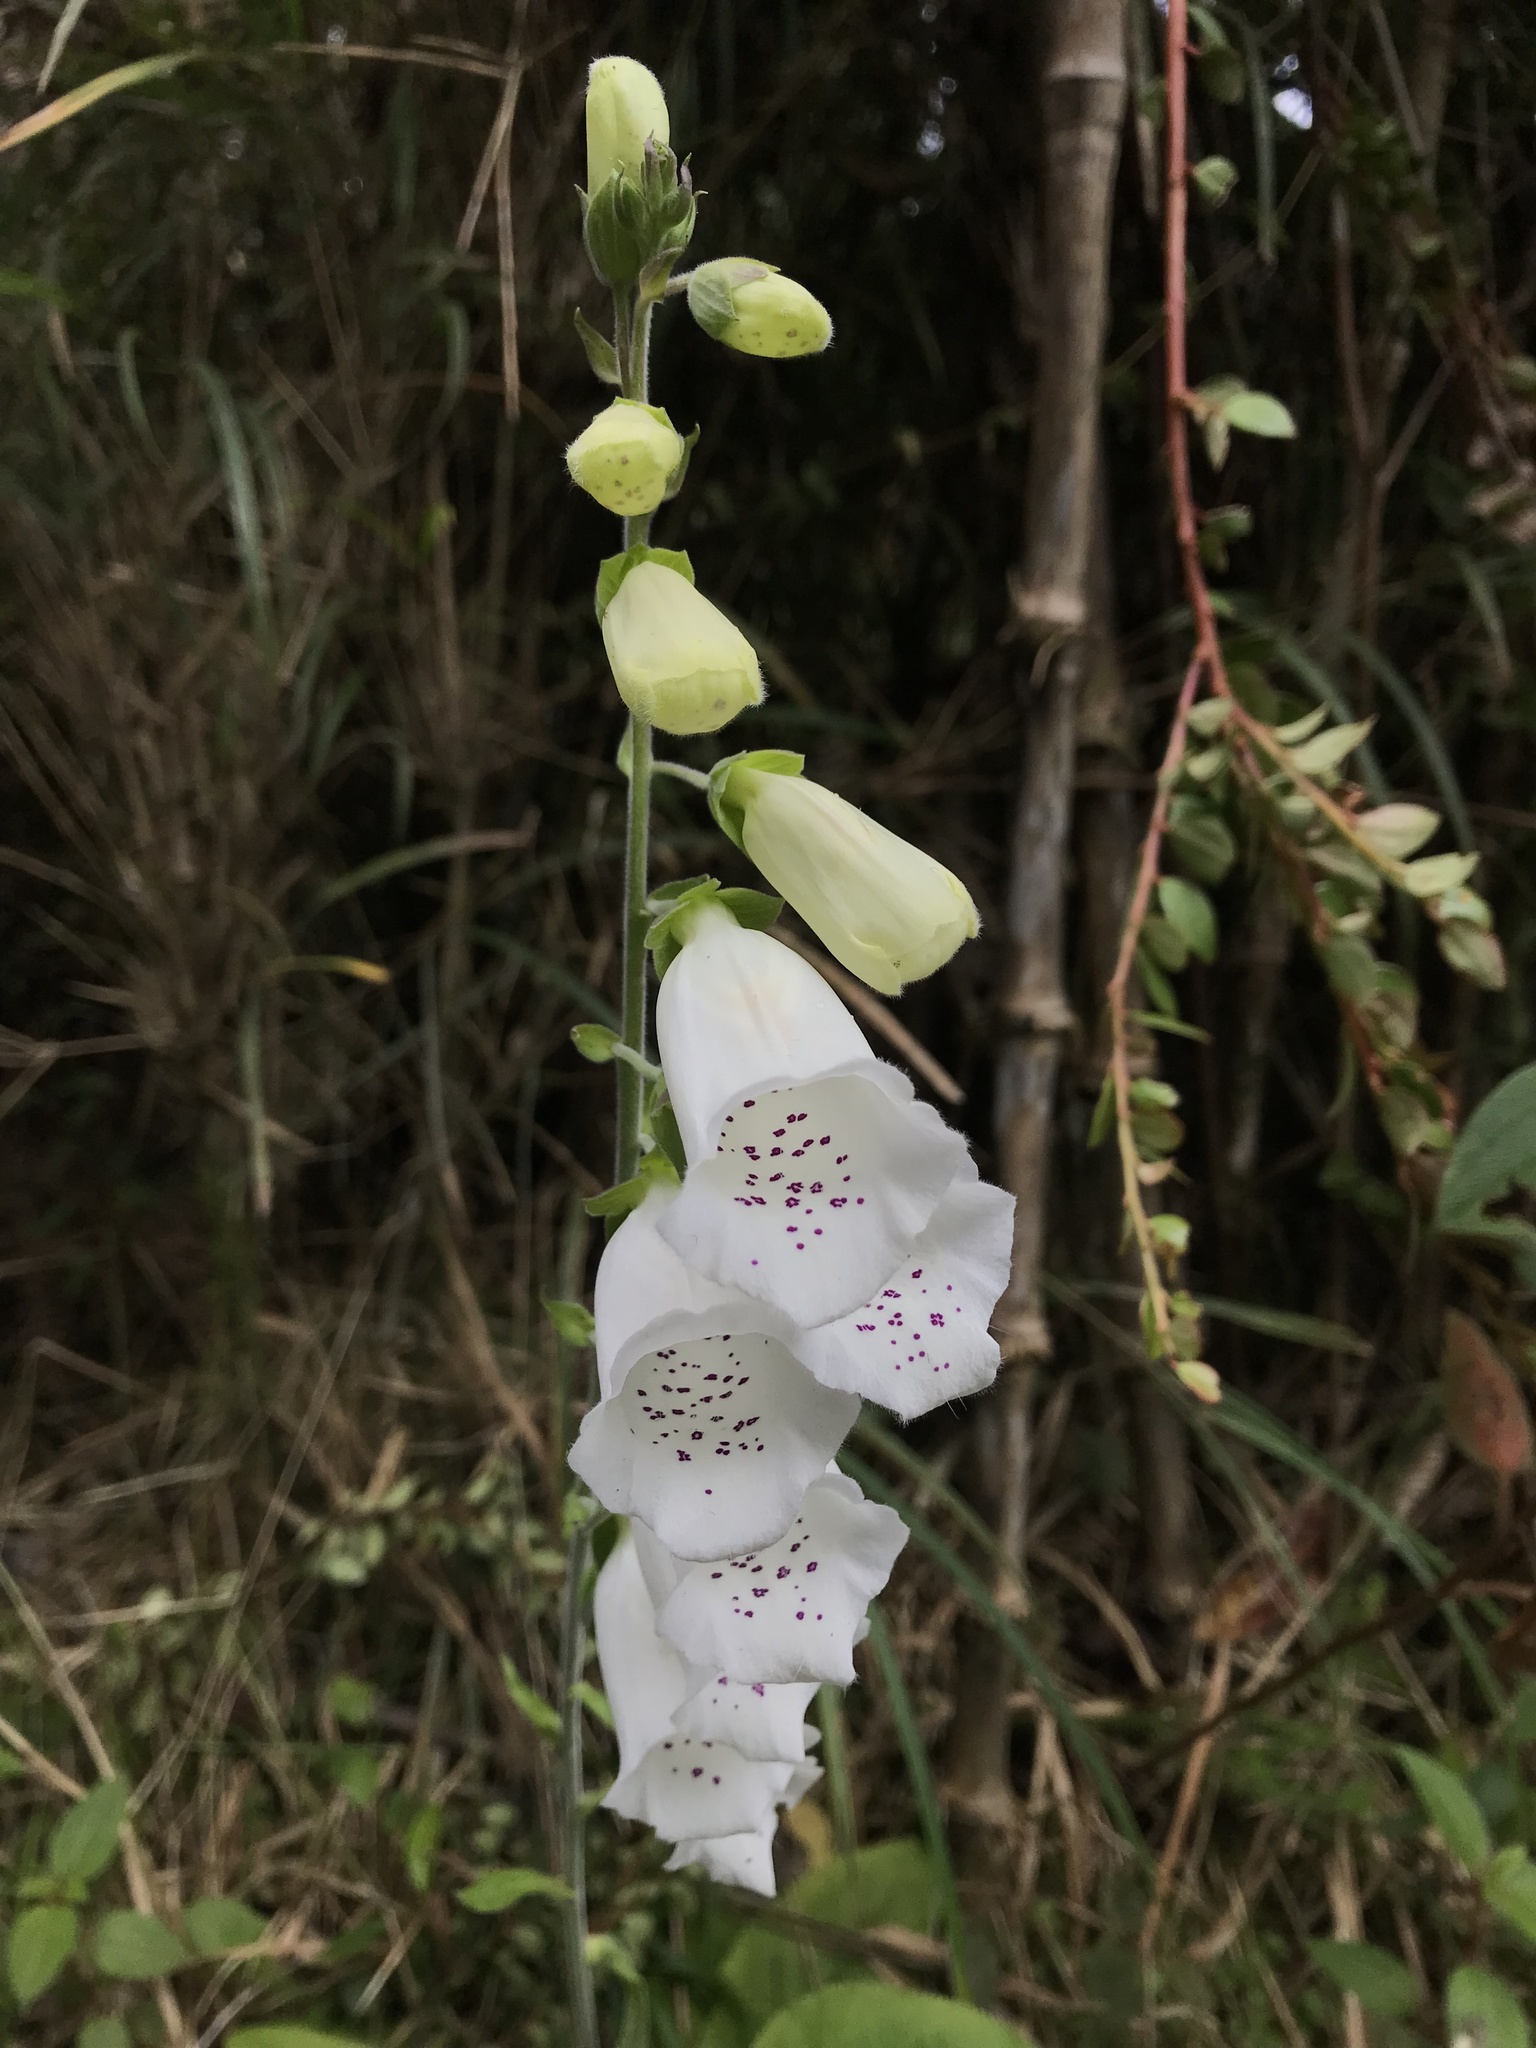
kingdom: Plantae
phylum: Tracheophyta
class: Magnoliopsida
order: Lamiales
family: Plantaginaceae
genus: Digitalis
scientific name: Digitalis purpurea
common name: Foxglove
